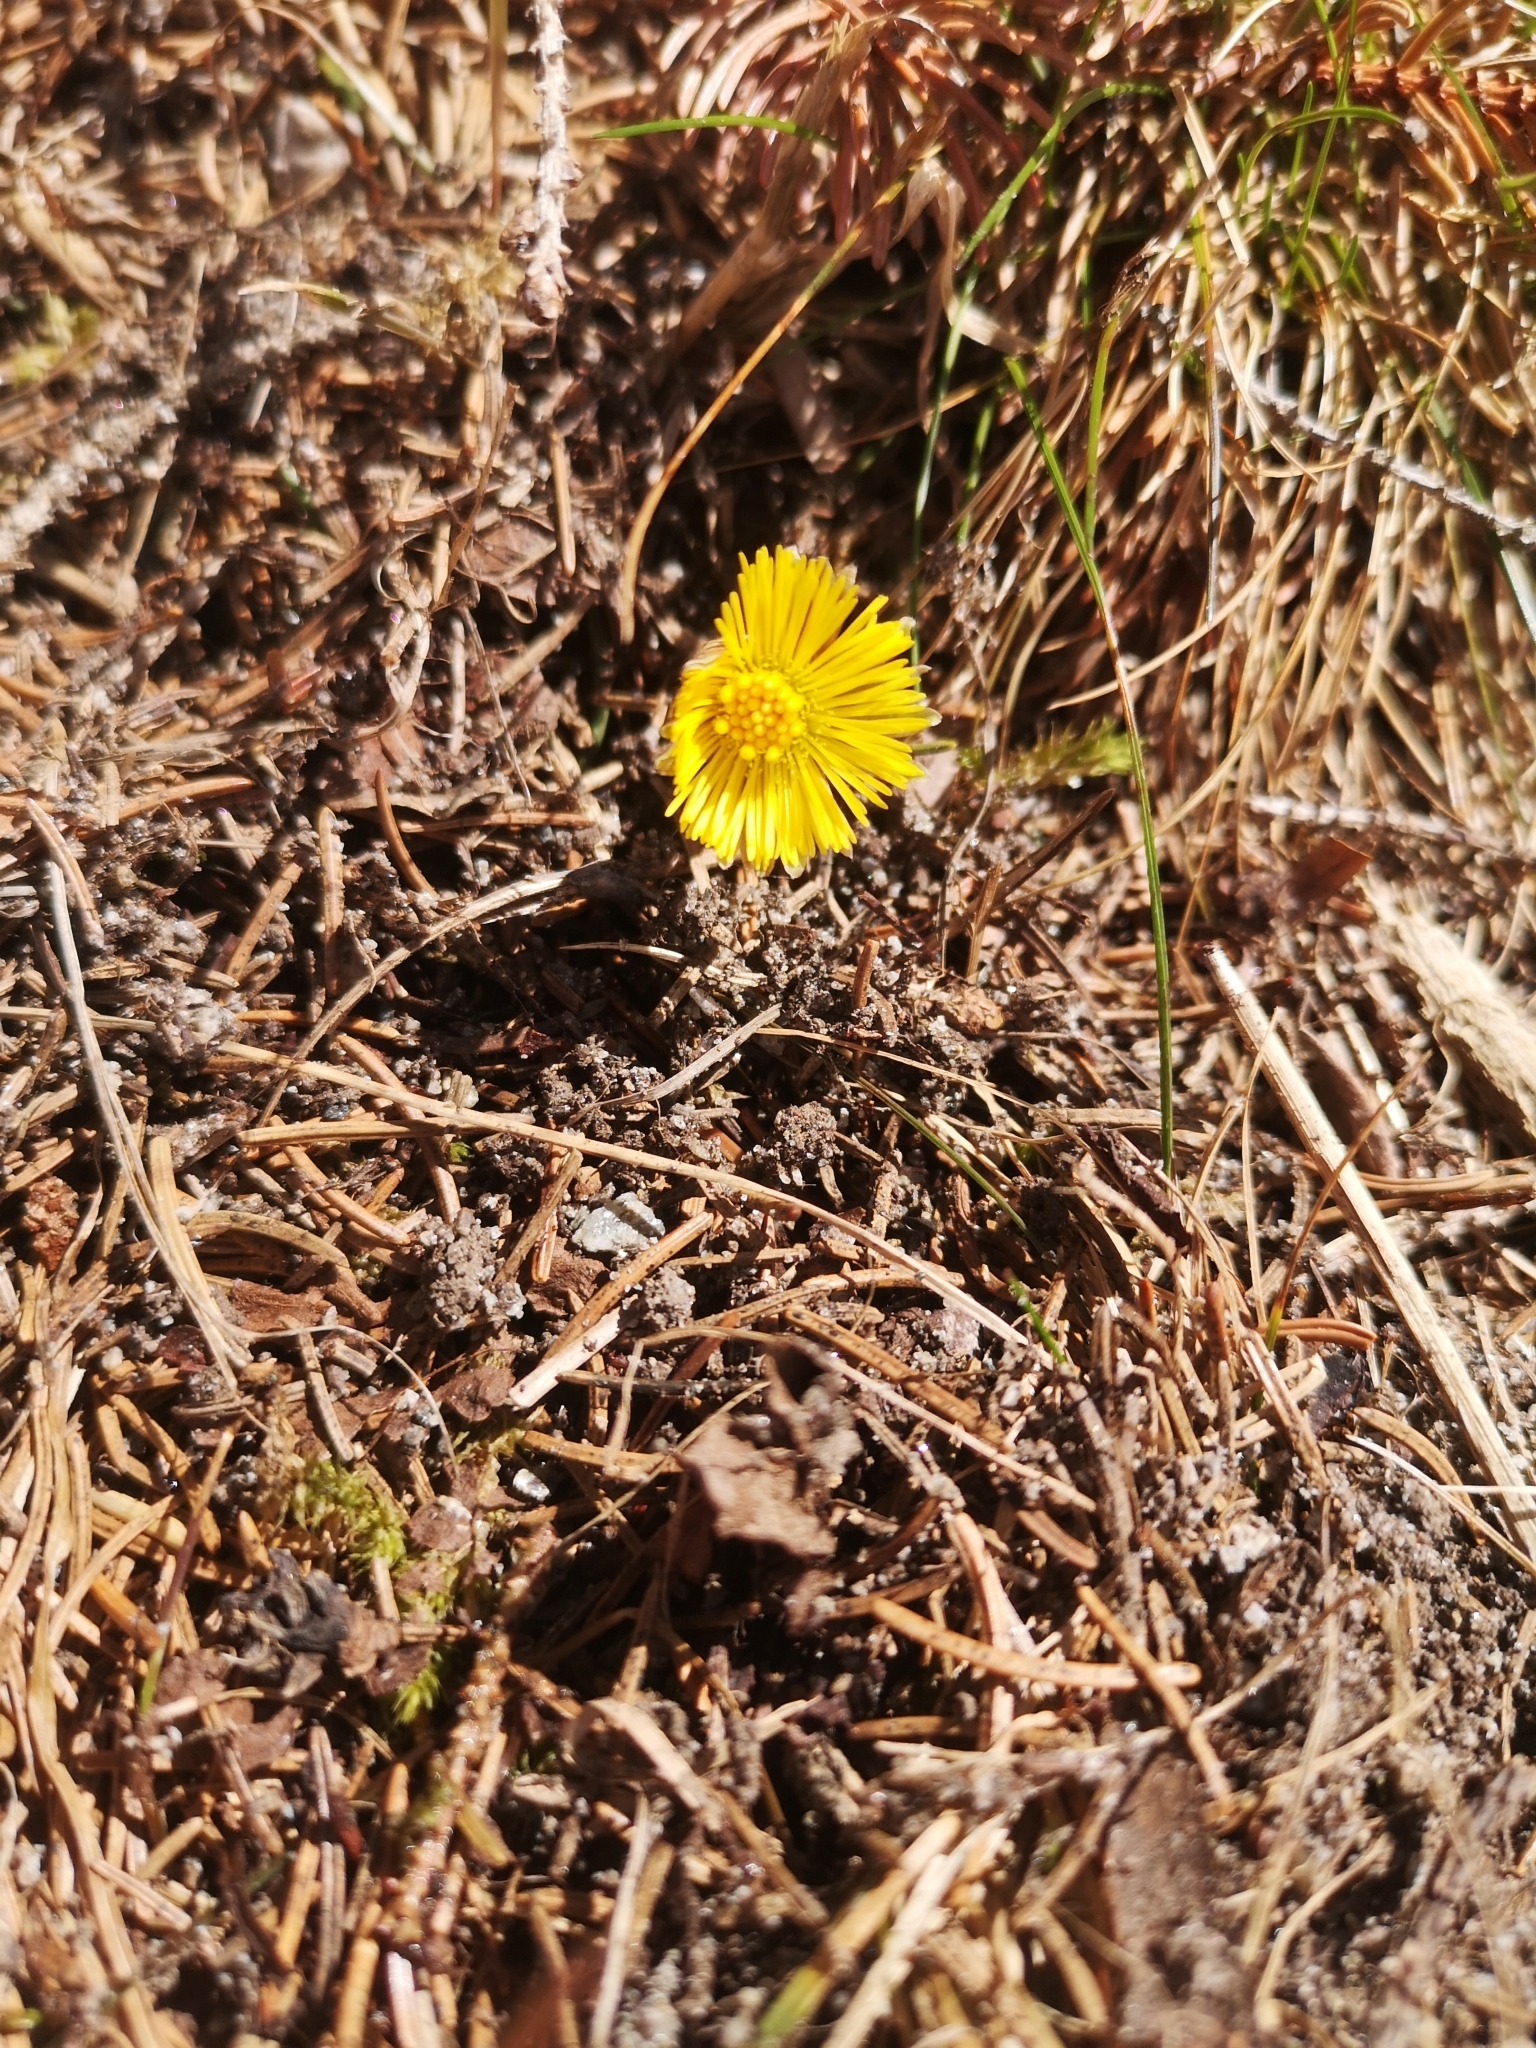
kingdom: Plantae
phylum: Tracheophyta
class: Magnoliopsida
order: Asterales
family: Asteraceae
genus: Tussilago
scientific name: Tussilago farfara
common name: Coltsfoot
